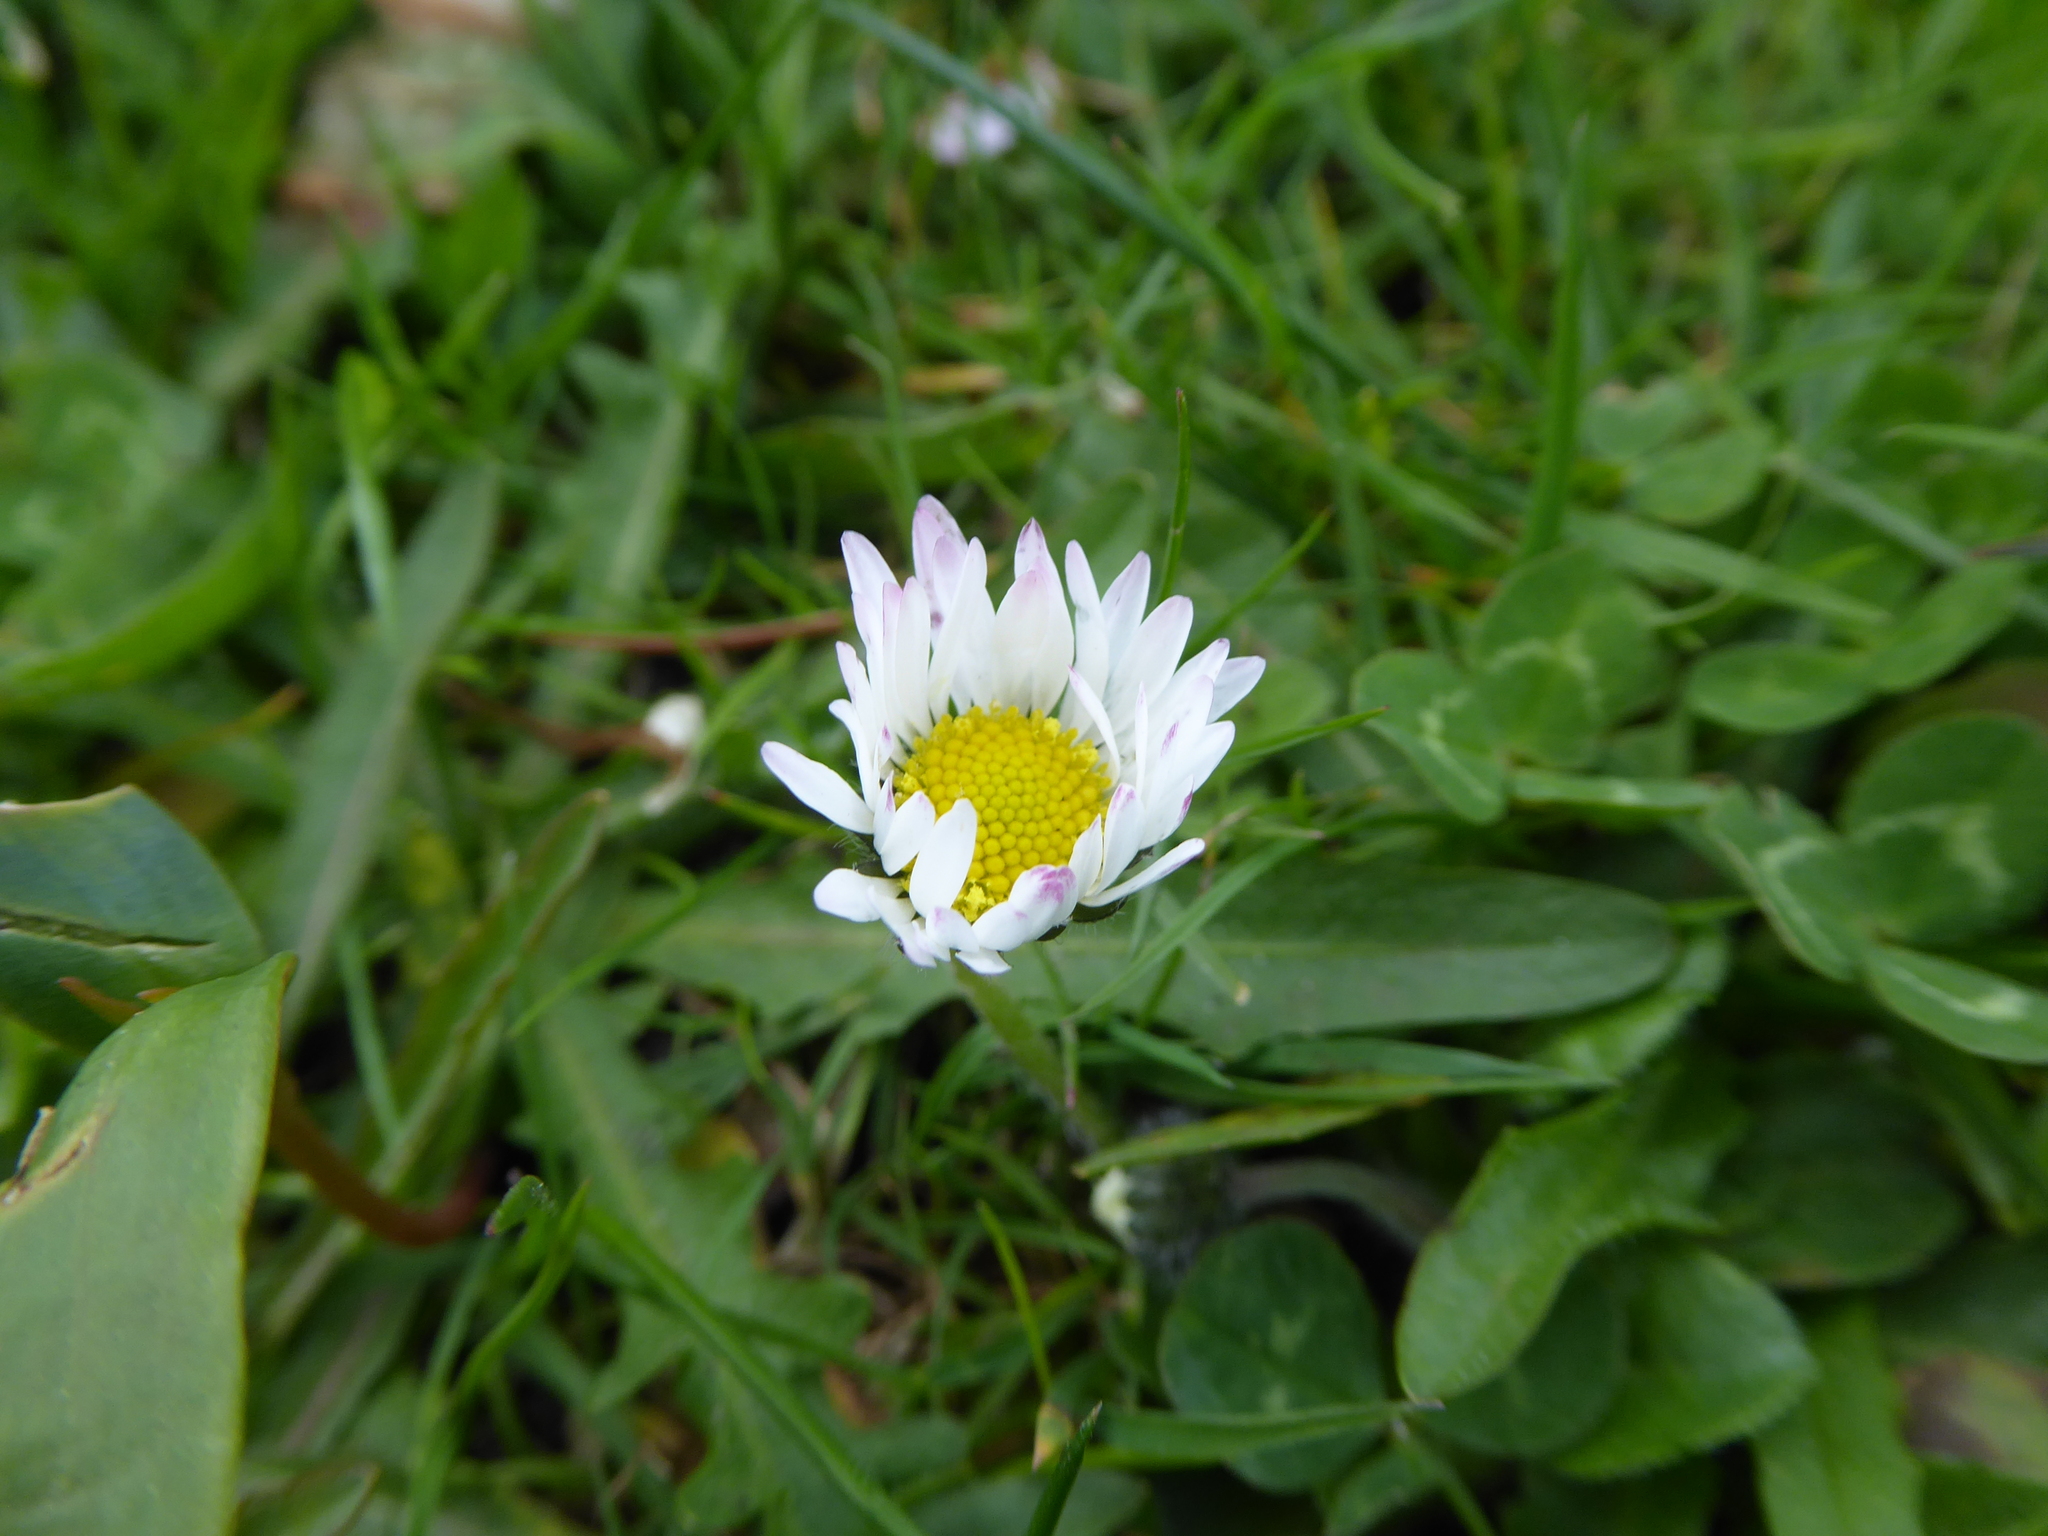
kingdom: Plantae
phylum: Tracheophyta
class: Magnoliopsida
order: Asterales
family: Asteraceae
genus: Bellis
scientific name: Bellis perennis
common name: Lawndaisy
